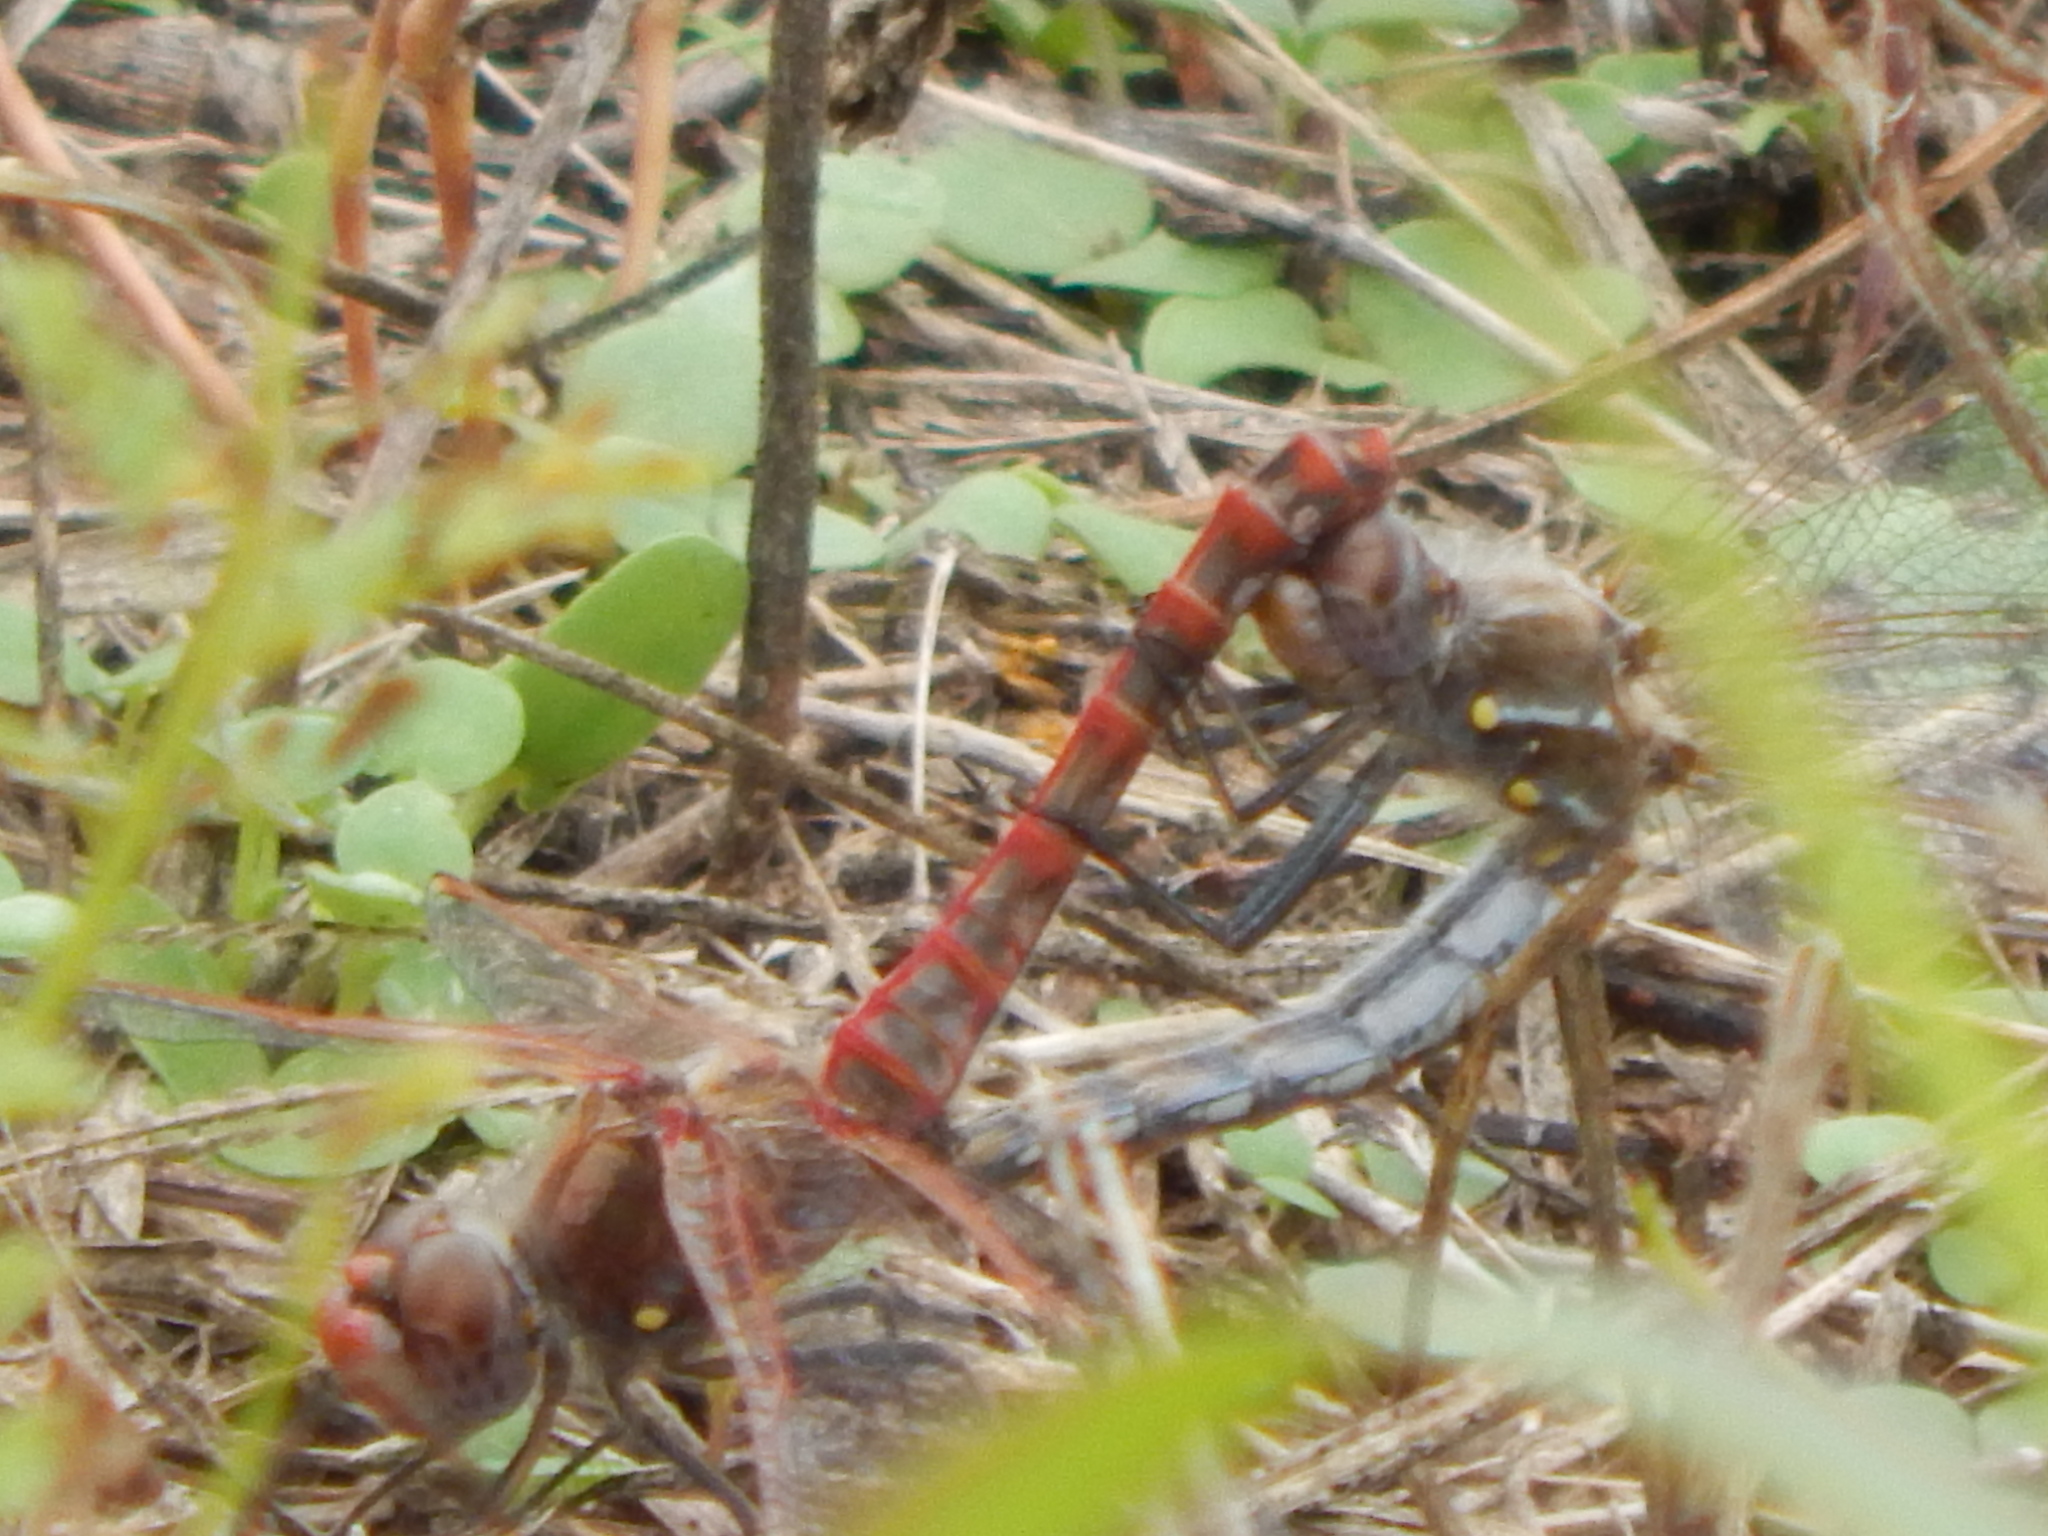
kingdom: Animalia
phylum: Arthropoda
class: Insecta
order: Odonata
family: Libellulidae
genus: Sympetrum
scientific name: Sympetrum corruptum
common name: Variegated meadowhawk
